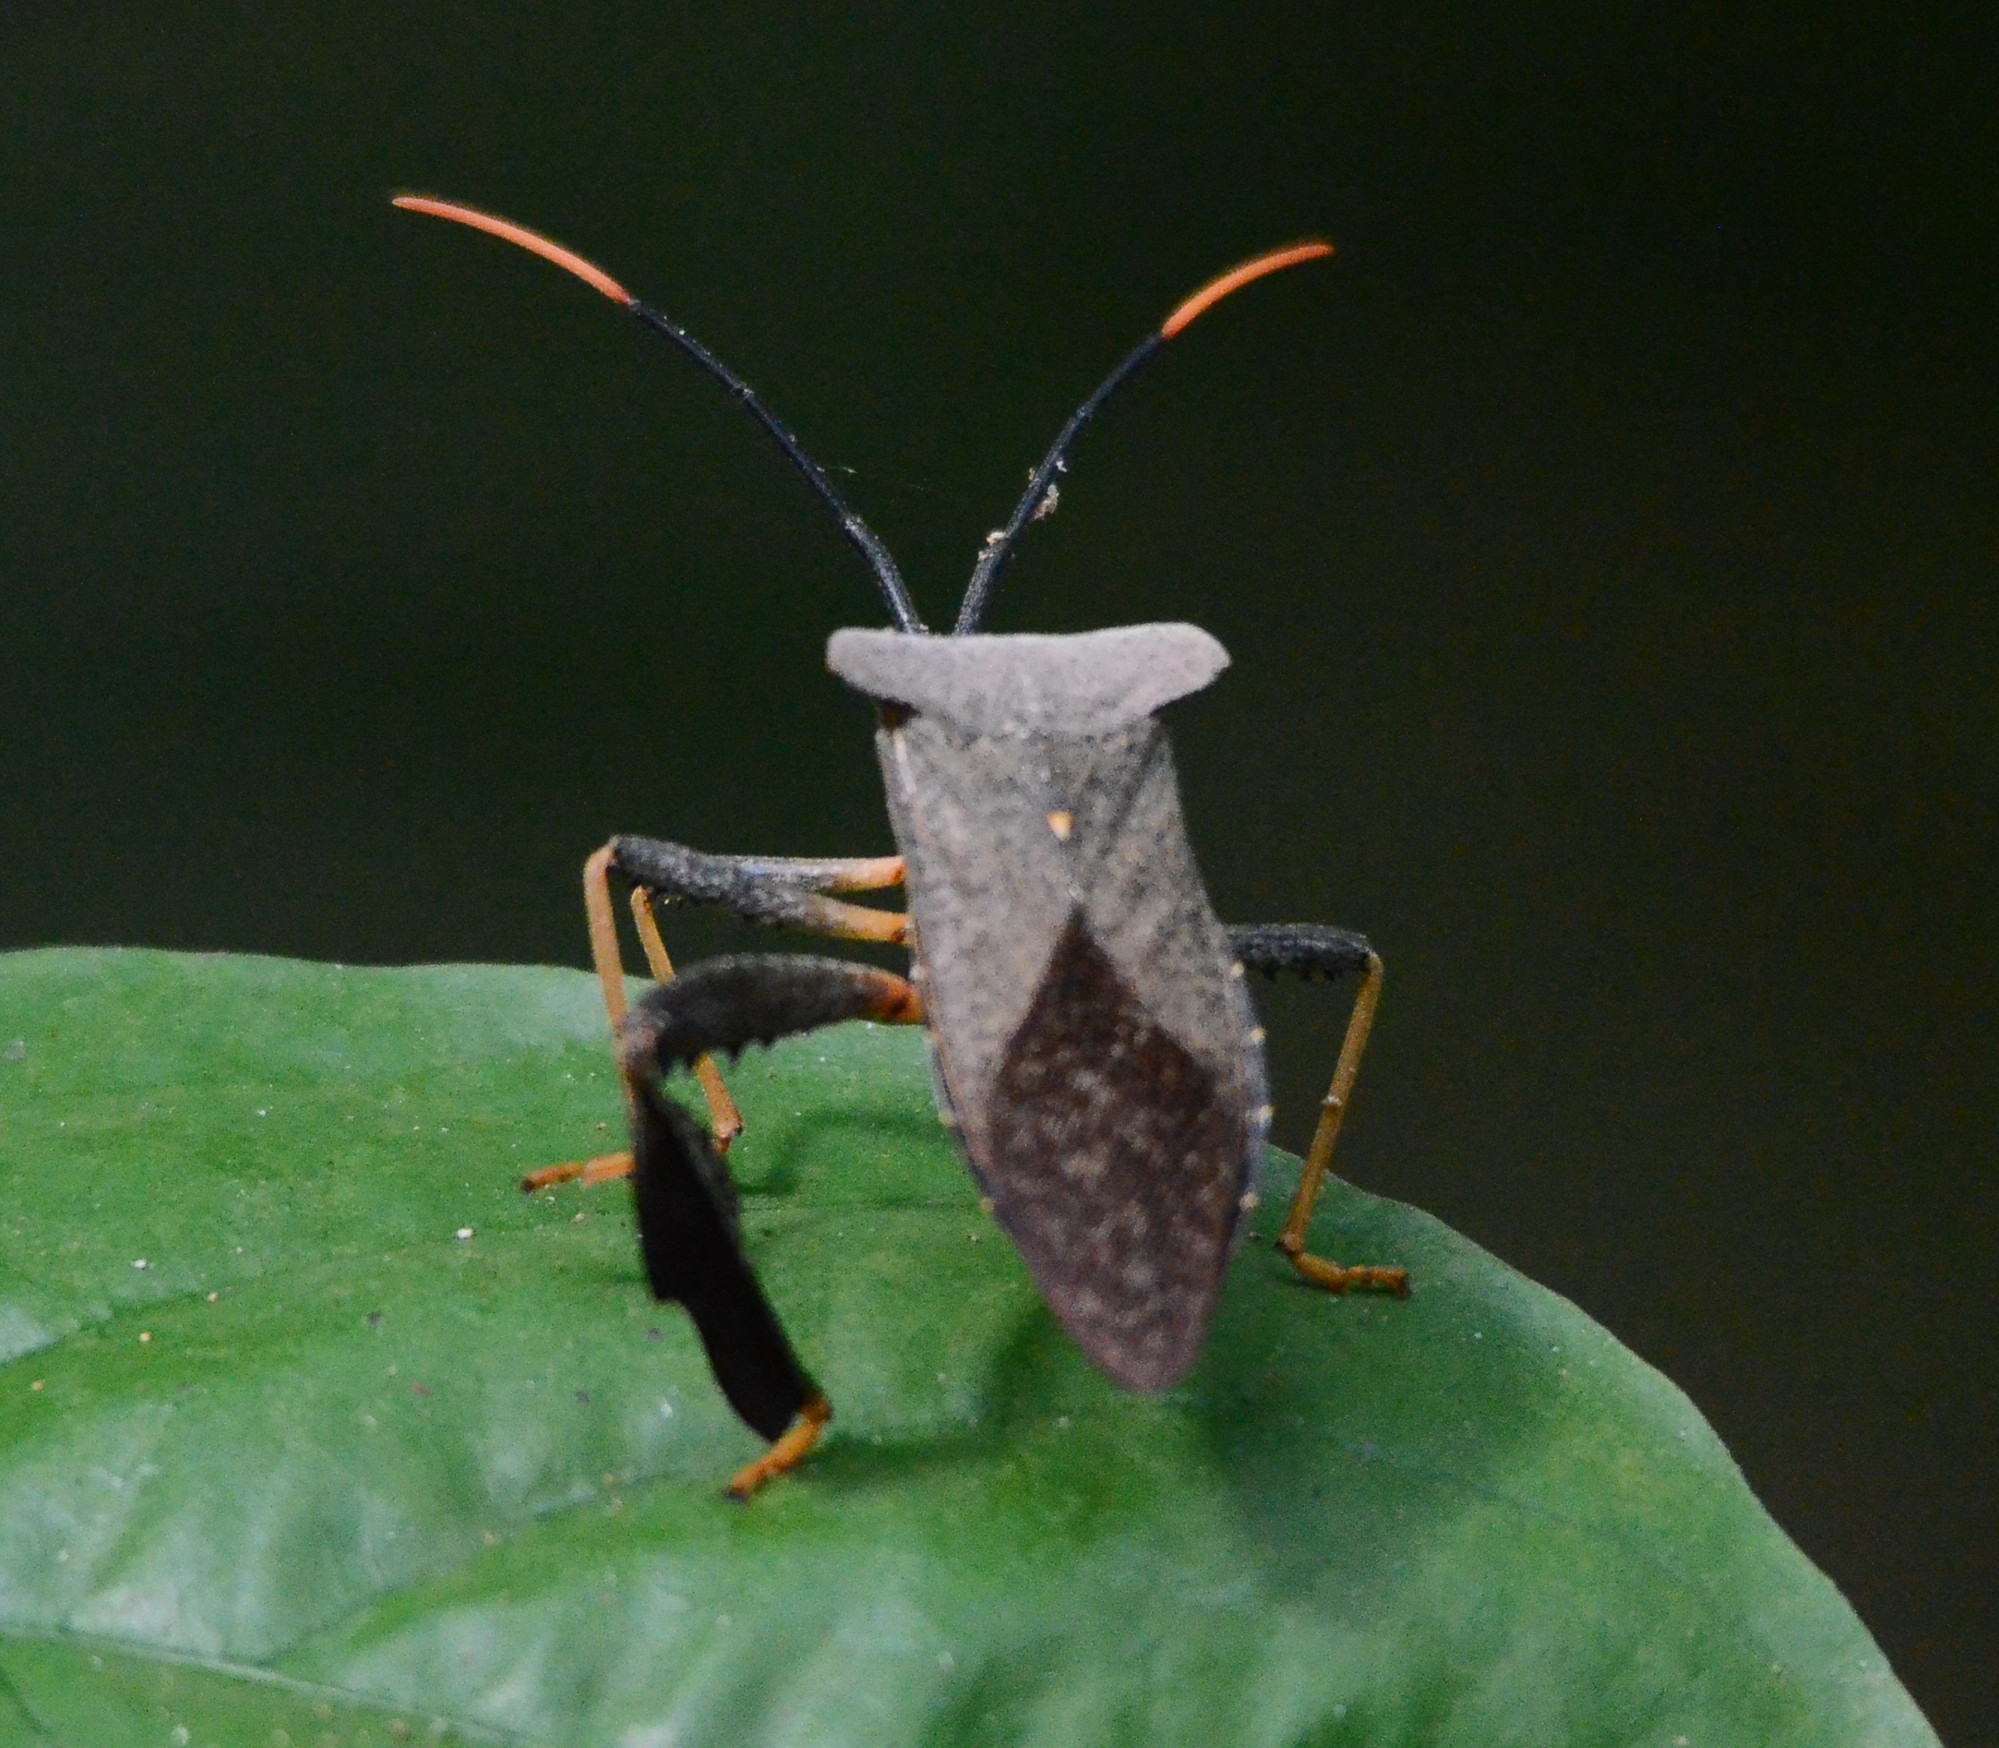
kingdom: Animalia
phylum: Arthropoda
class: Insecta
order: Hemiptera
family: Coreidae
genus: Acanthocephala
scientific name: Acanthocephala alata
